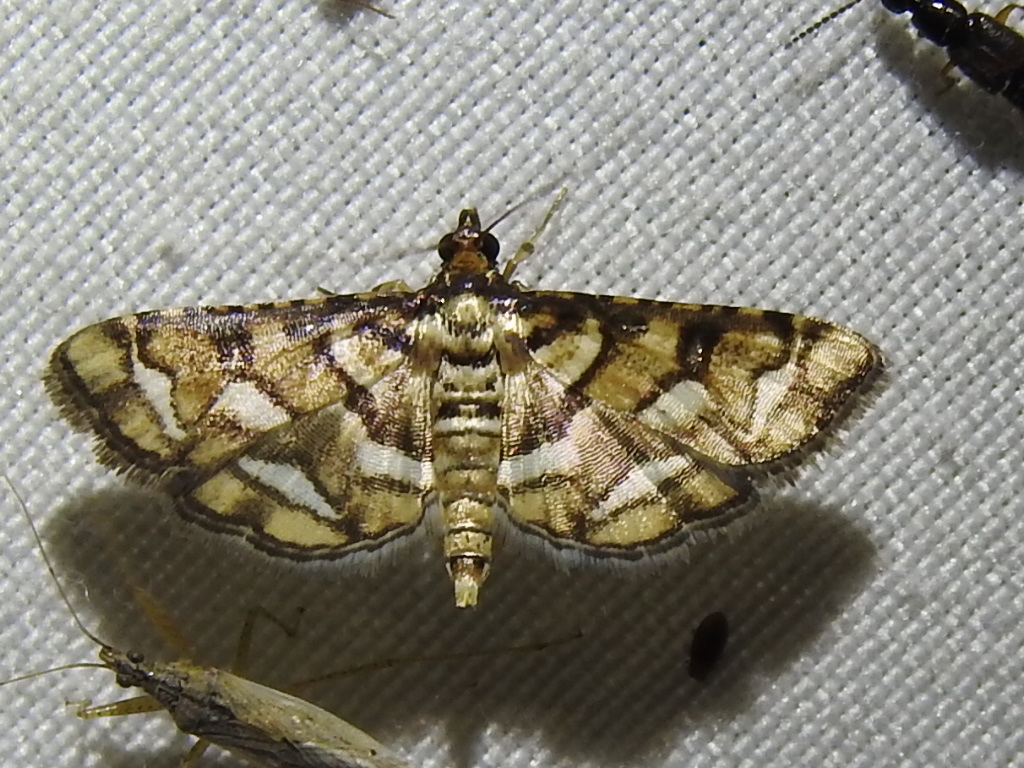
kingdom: Animalia
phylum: Arthropoda
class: Insecta
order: Lepidoptera
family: Crambidae
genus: Hileithia
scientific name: Hileithia magualis
